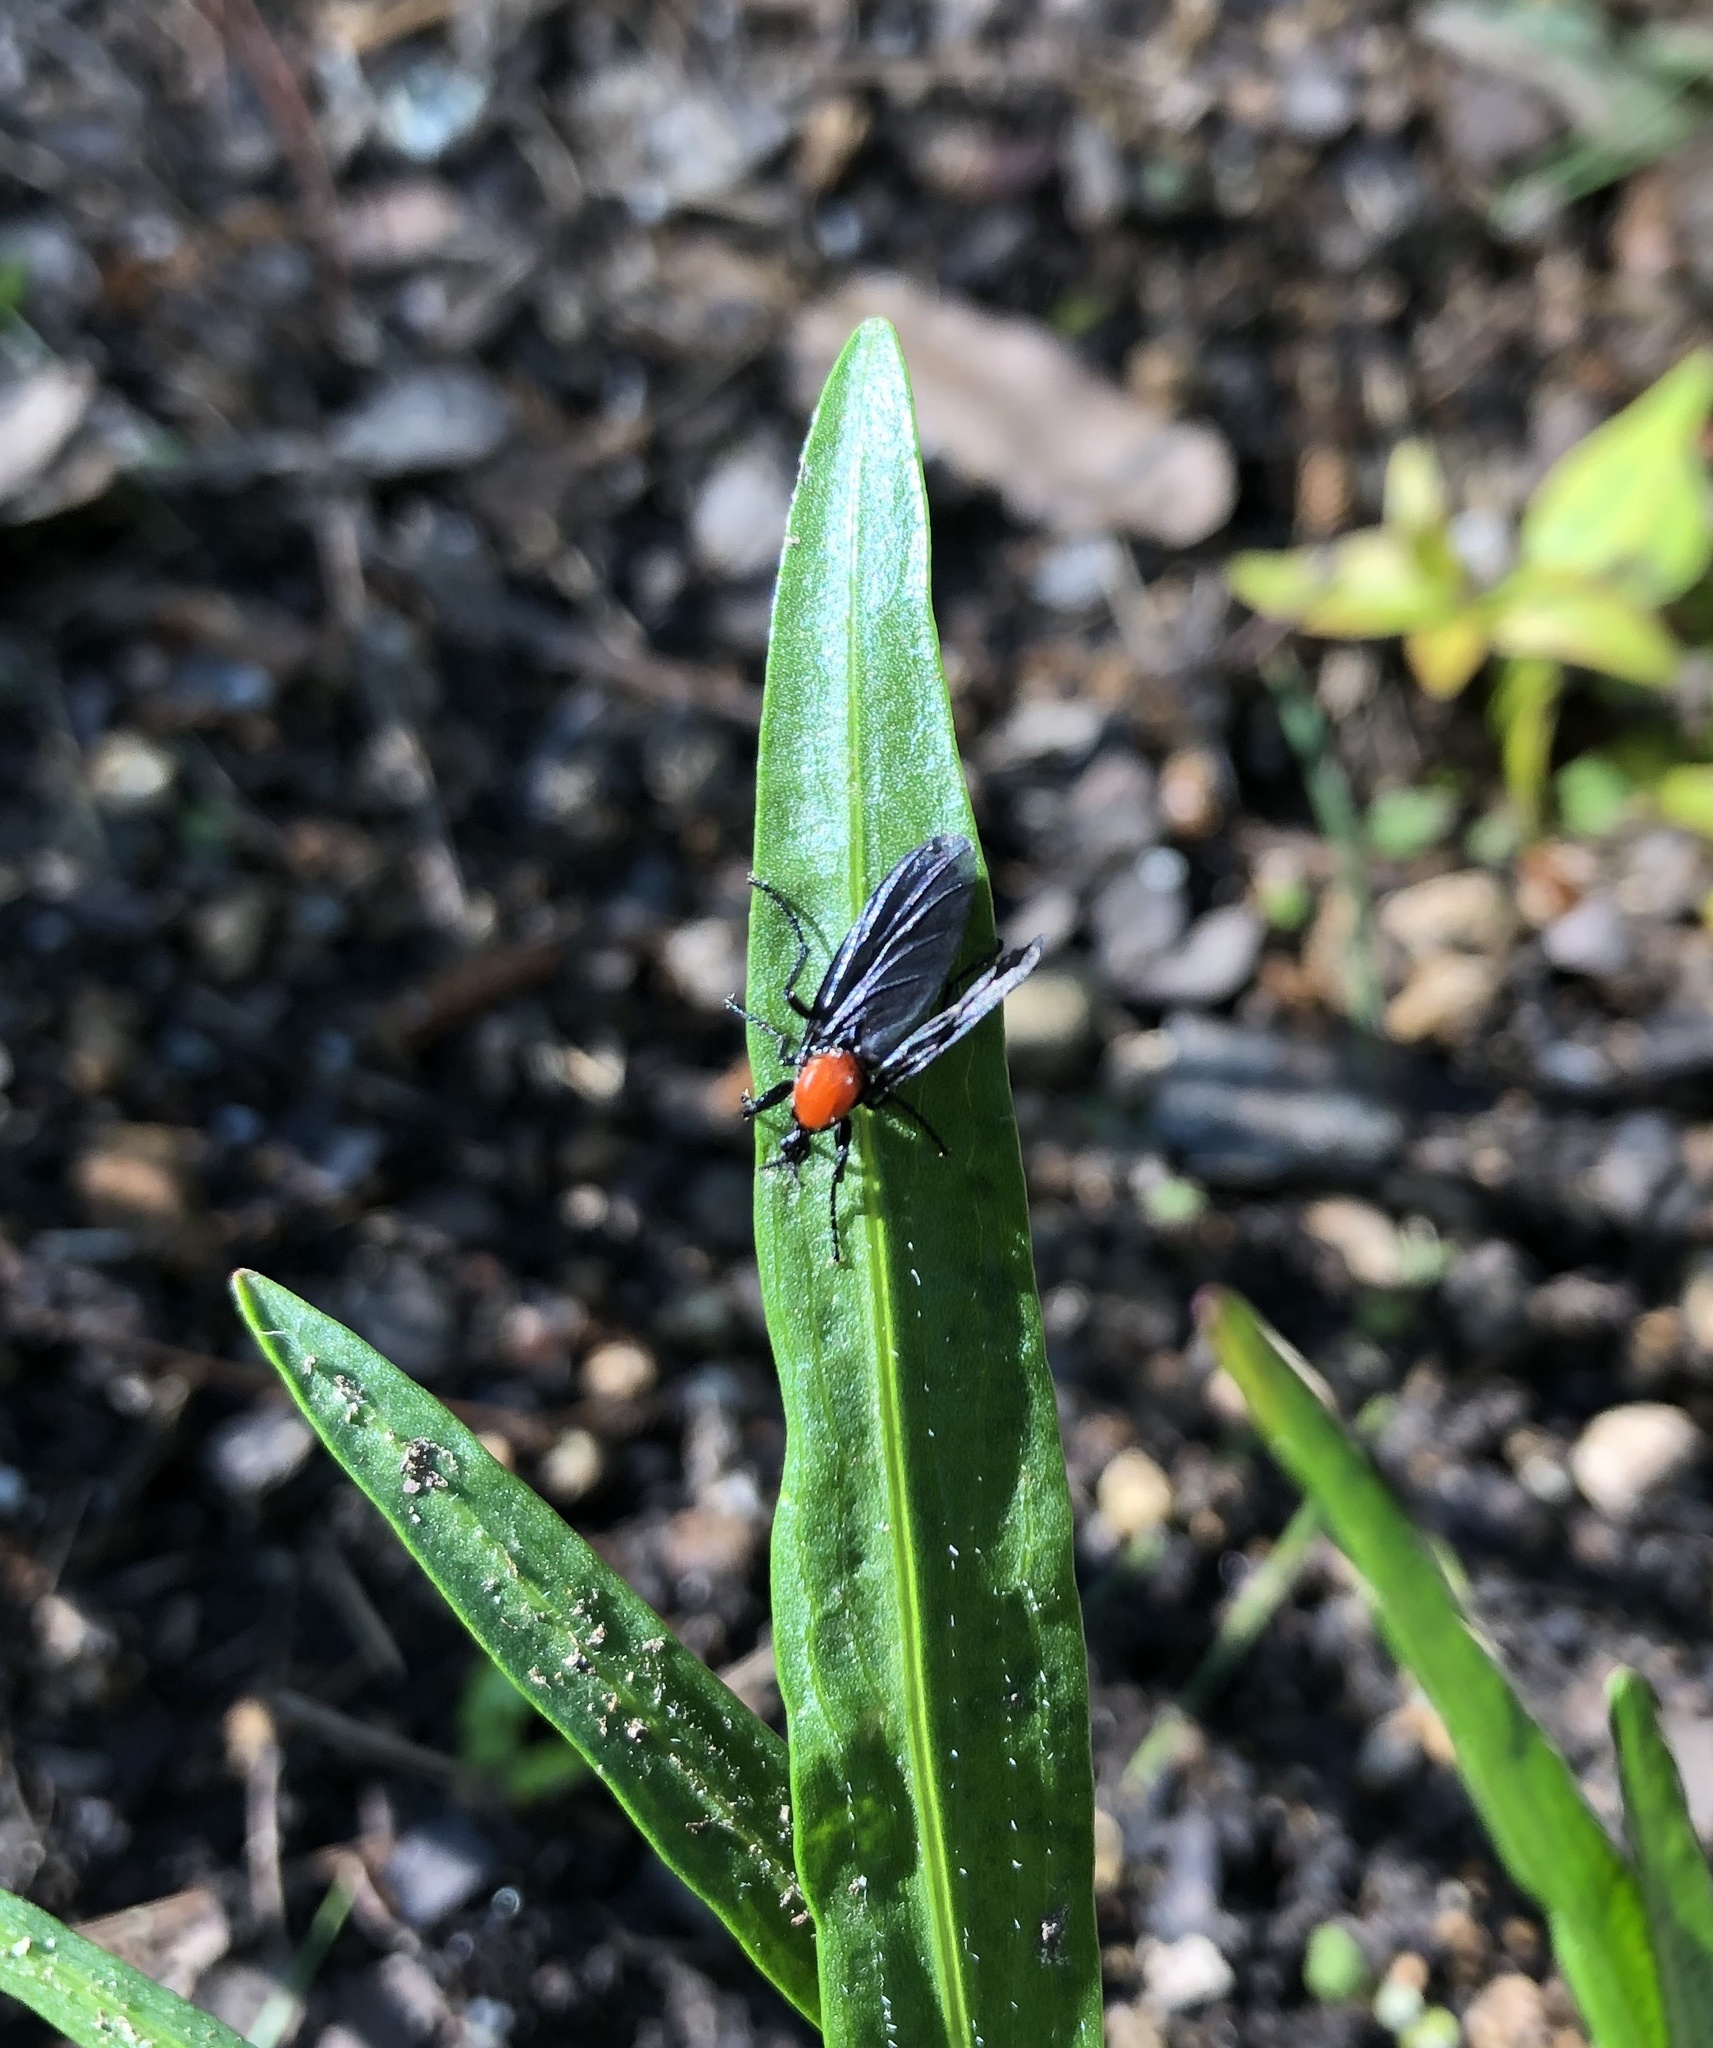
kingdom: Animalia
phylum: Arthropoda
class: Insecta
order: Diptera
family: Bibionidae
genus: Plecia
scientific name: Plecia nearctica
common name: March fly
